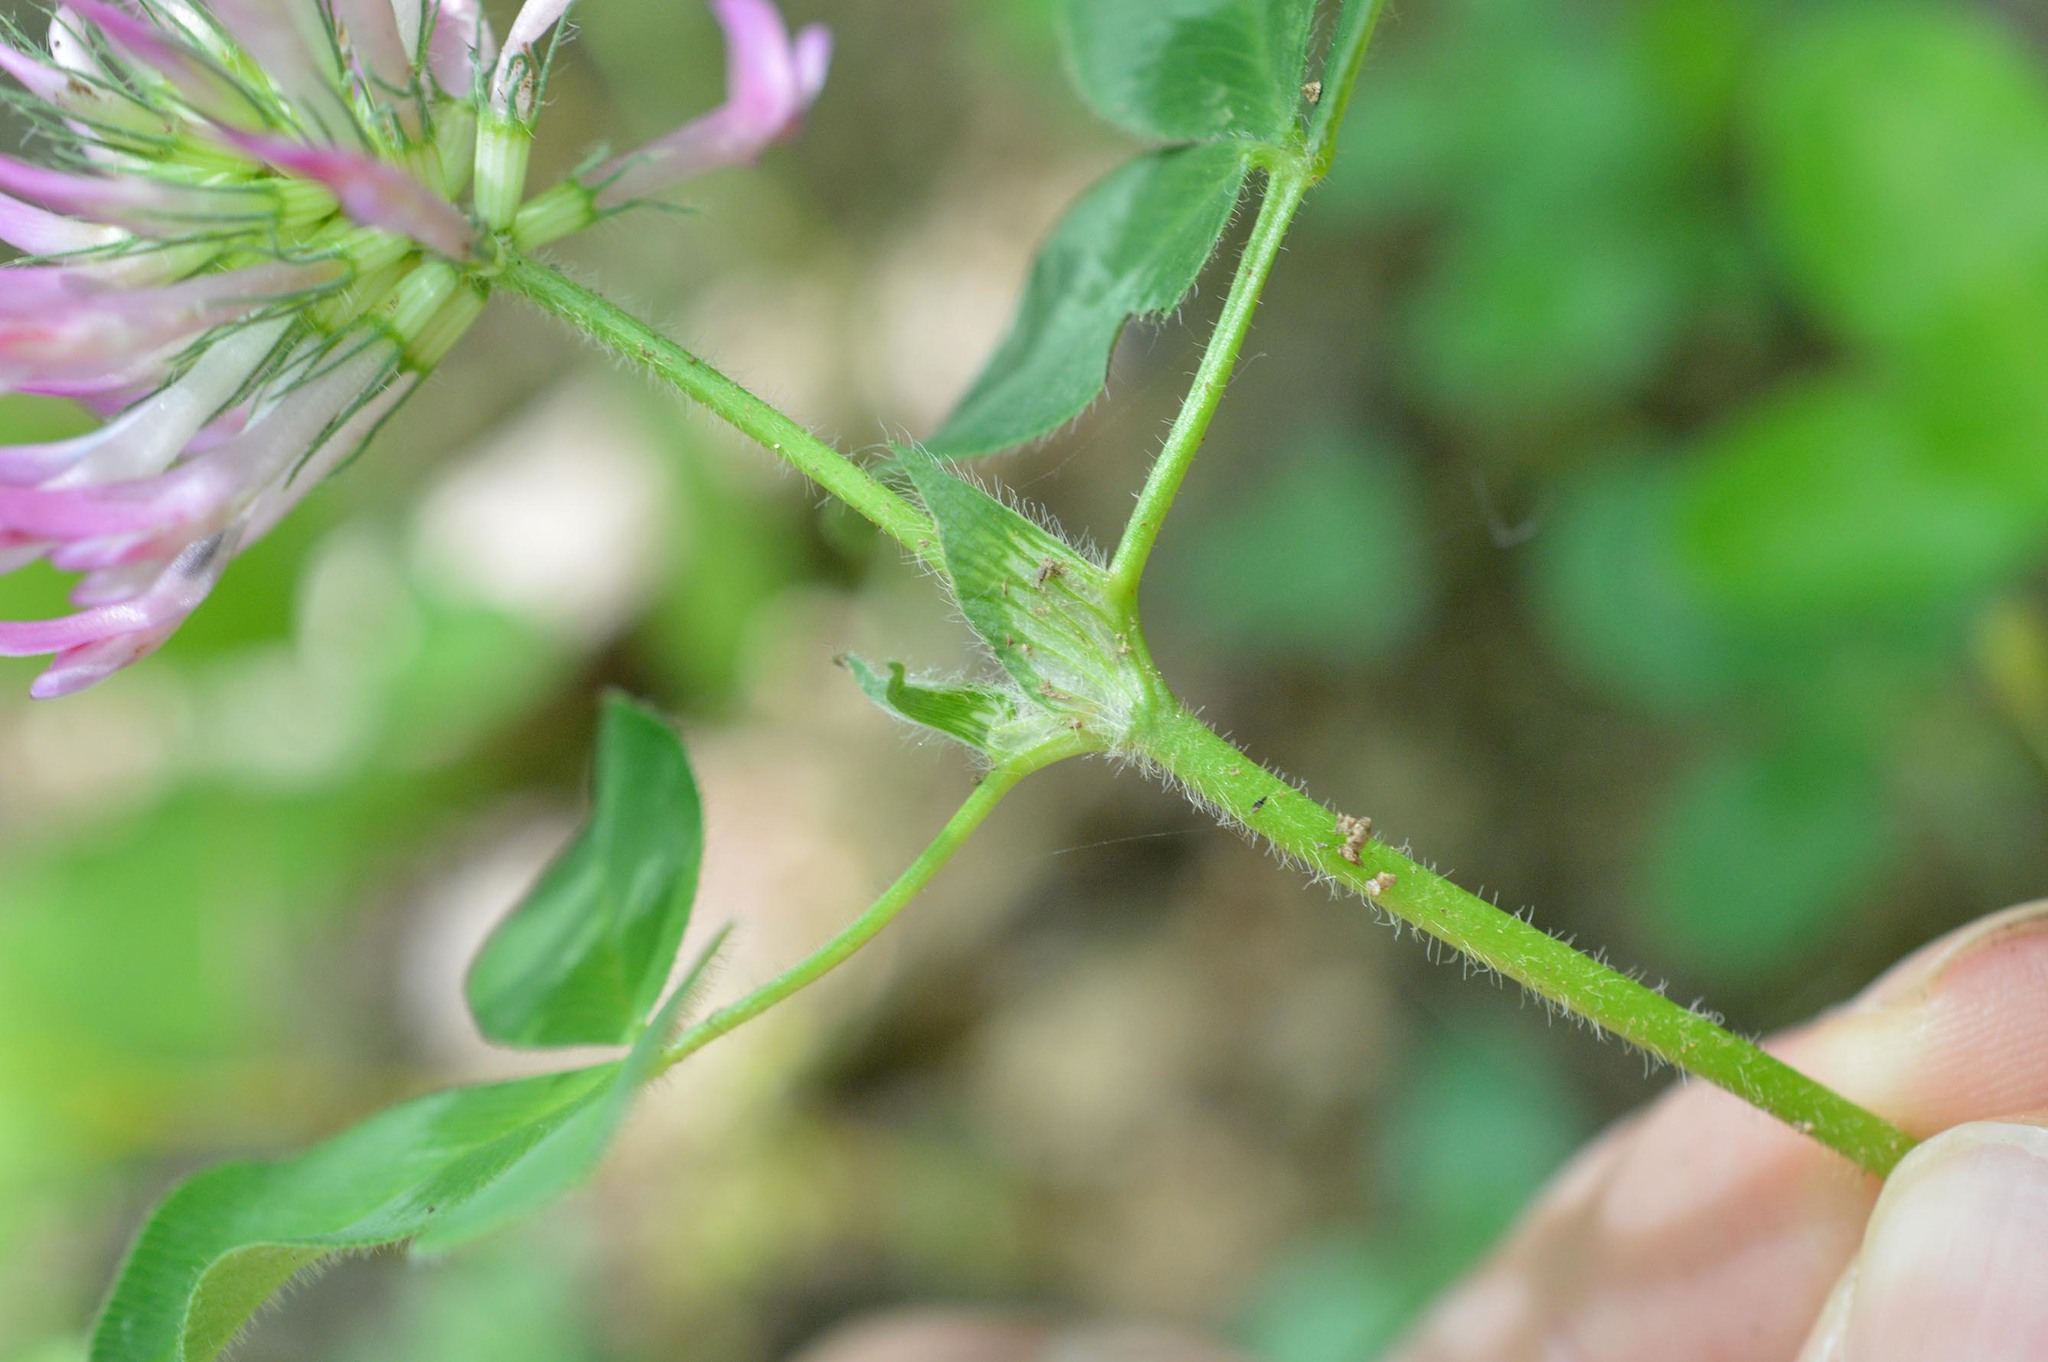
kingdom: Plantae
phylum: Tracheophyta
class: Magnoliopsida
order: Fabales
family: Fabaceae
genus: Trifolium
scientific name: Trifolium medium
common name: Zigzag clover
